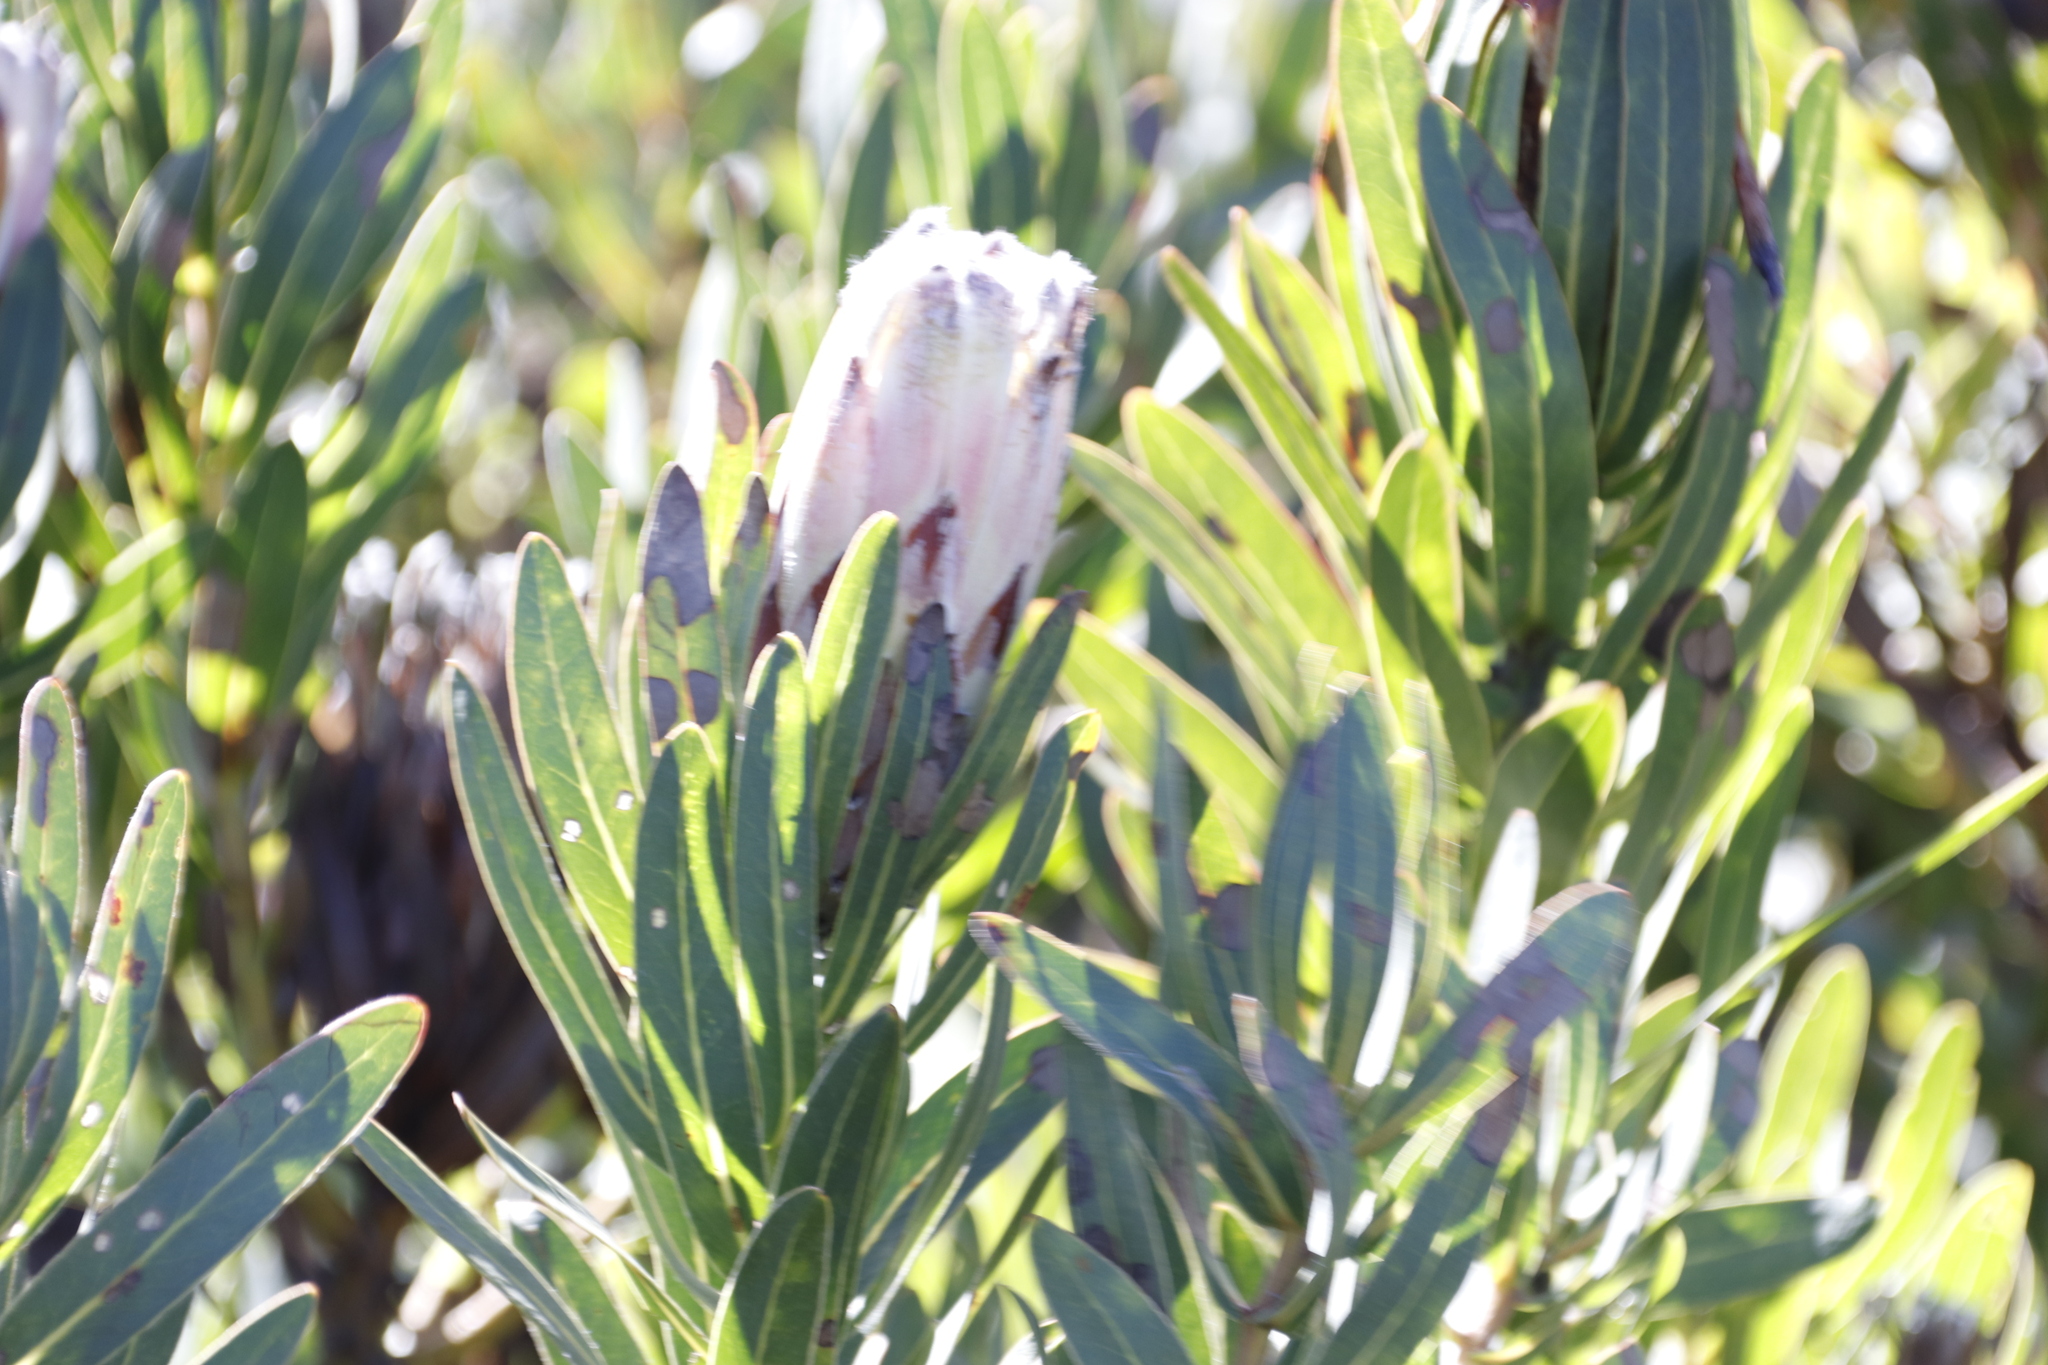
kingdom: Plantae
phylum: Tracheophyta
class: Magnoliopsida
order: Proteales
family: Proteaceae
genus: Protea
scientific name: Protea
